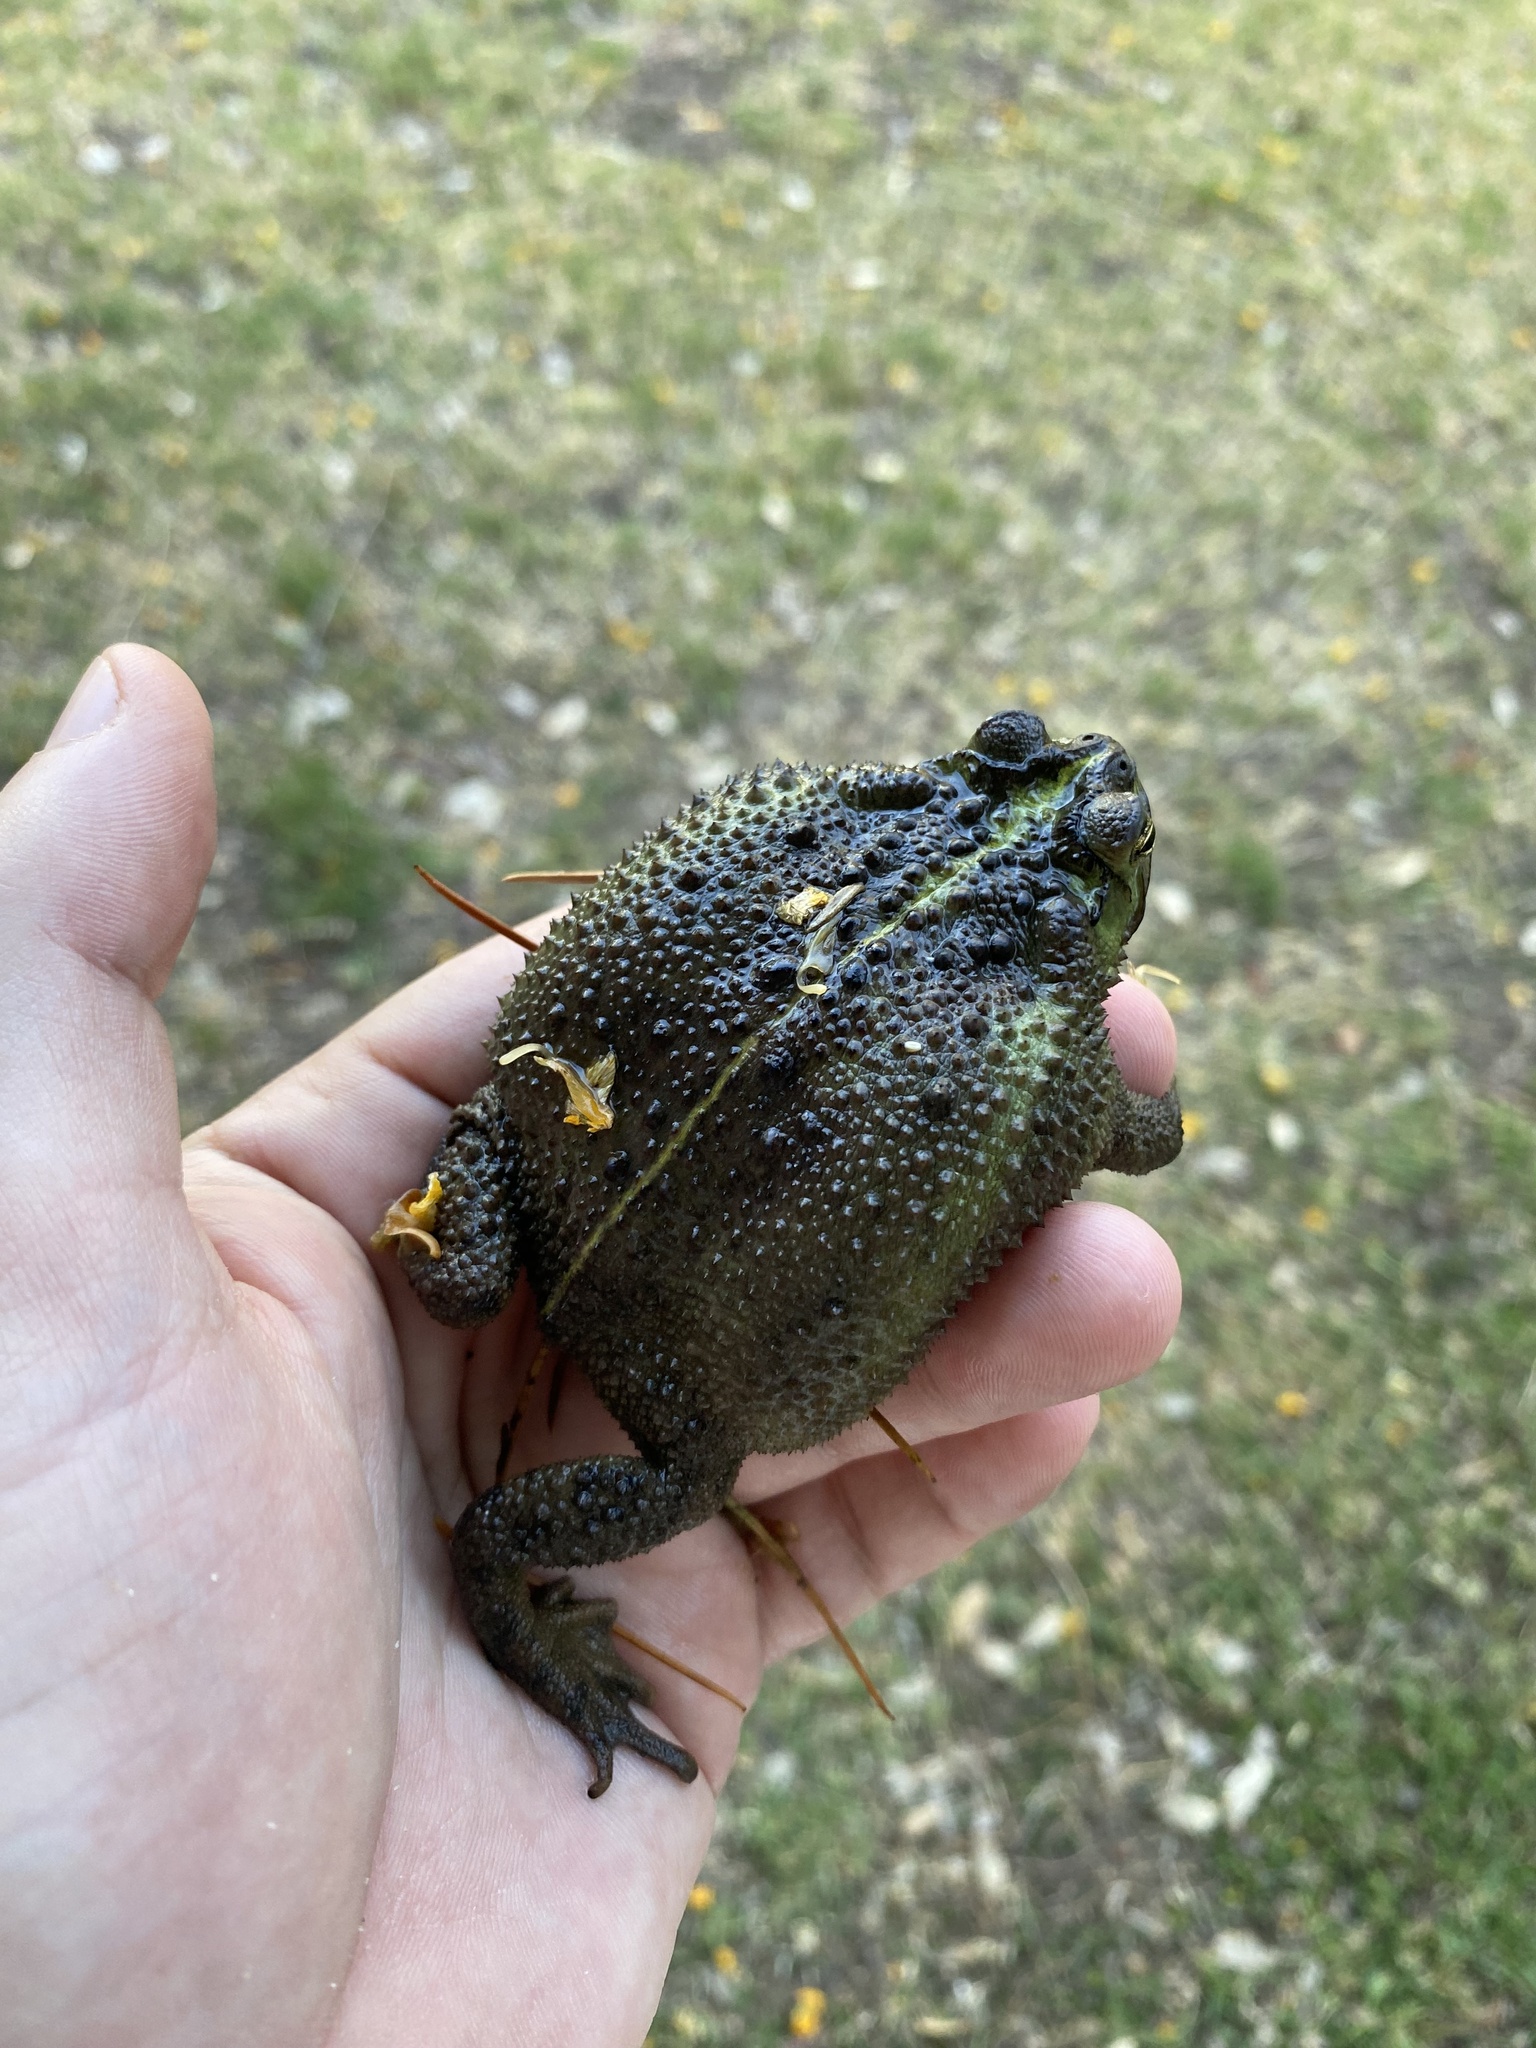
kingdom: Animalia
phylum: Chordata
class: Amphibia
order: Anura
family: Bufonidae
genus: Rhinella
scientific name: Rhinella dorbignyi
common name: D´orbigny’s toad
